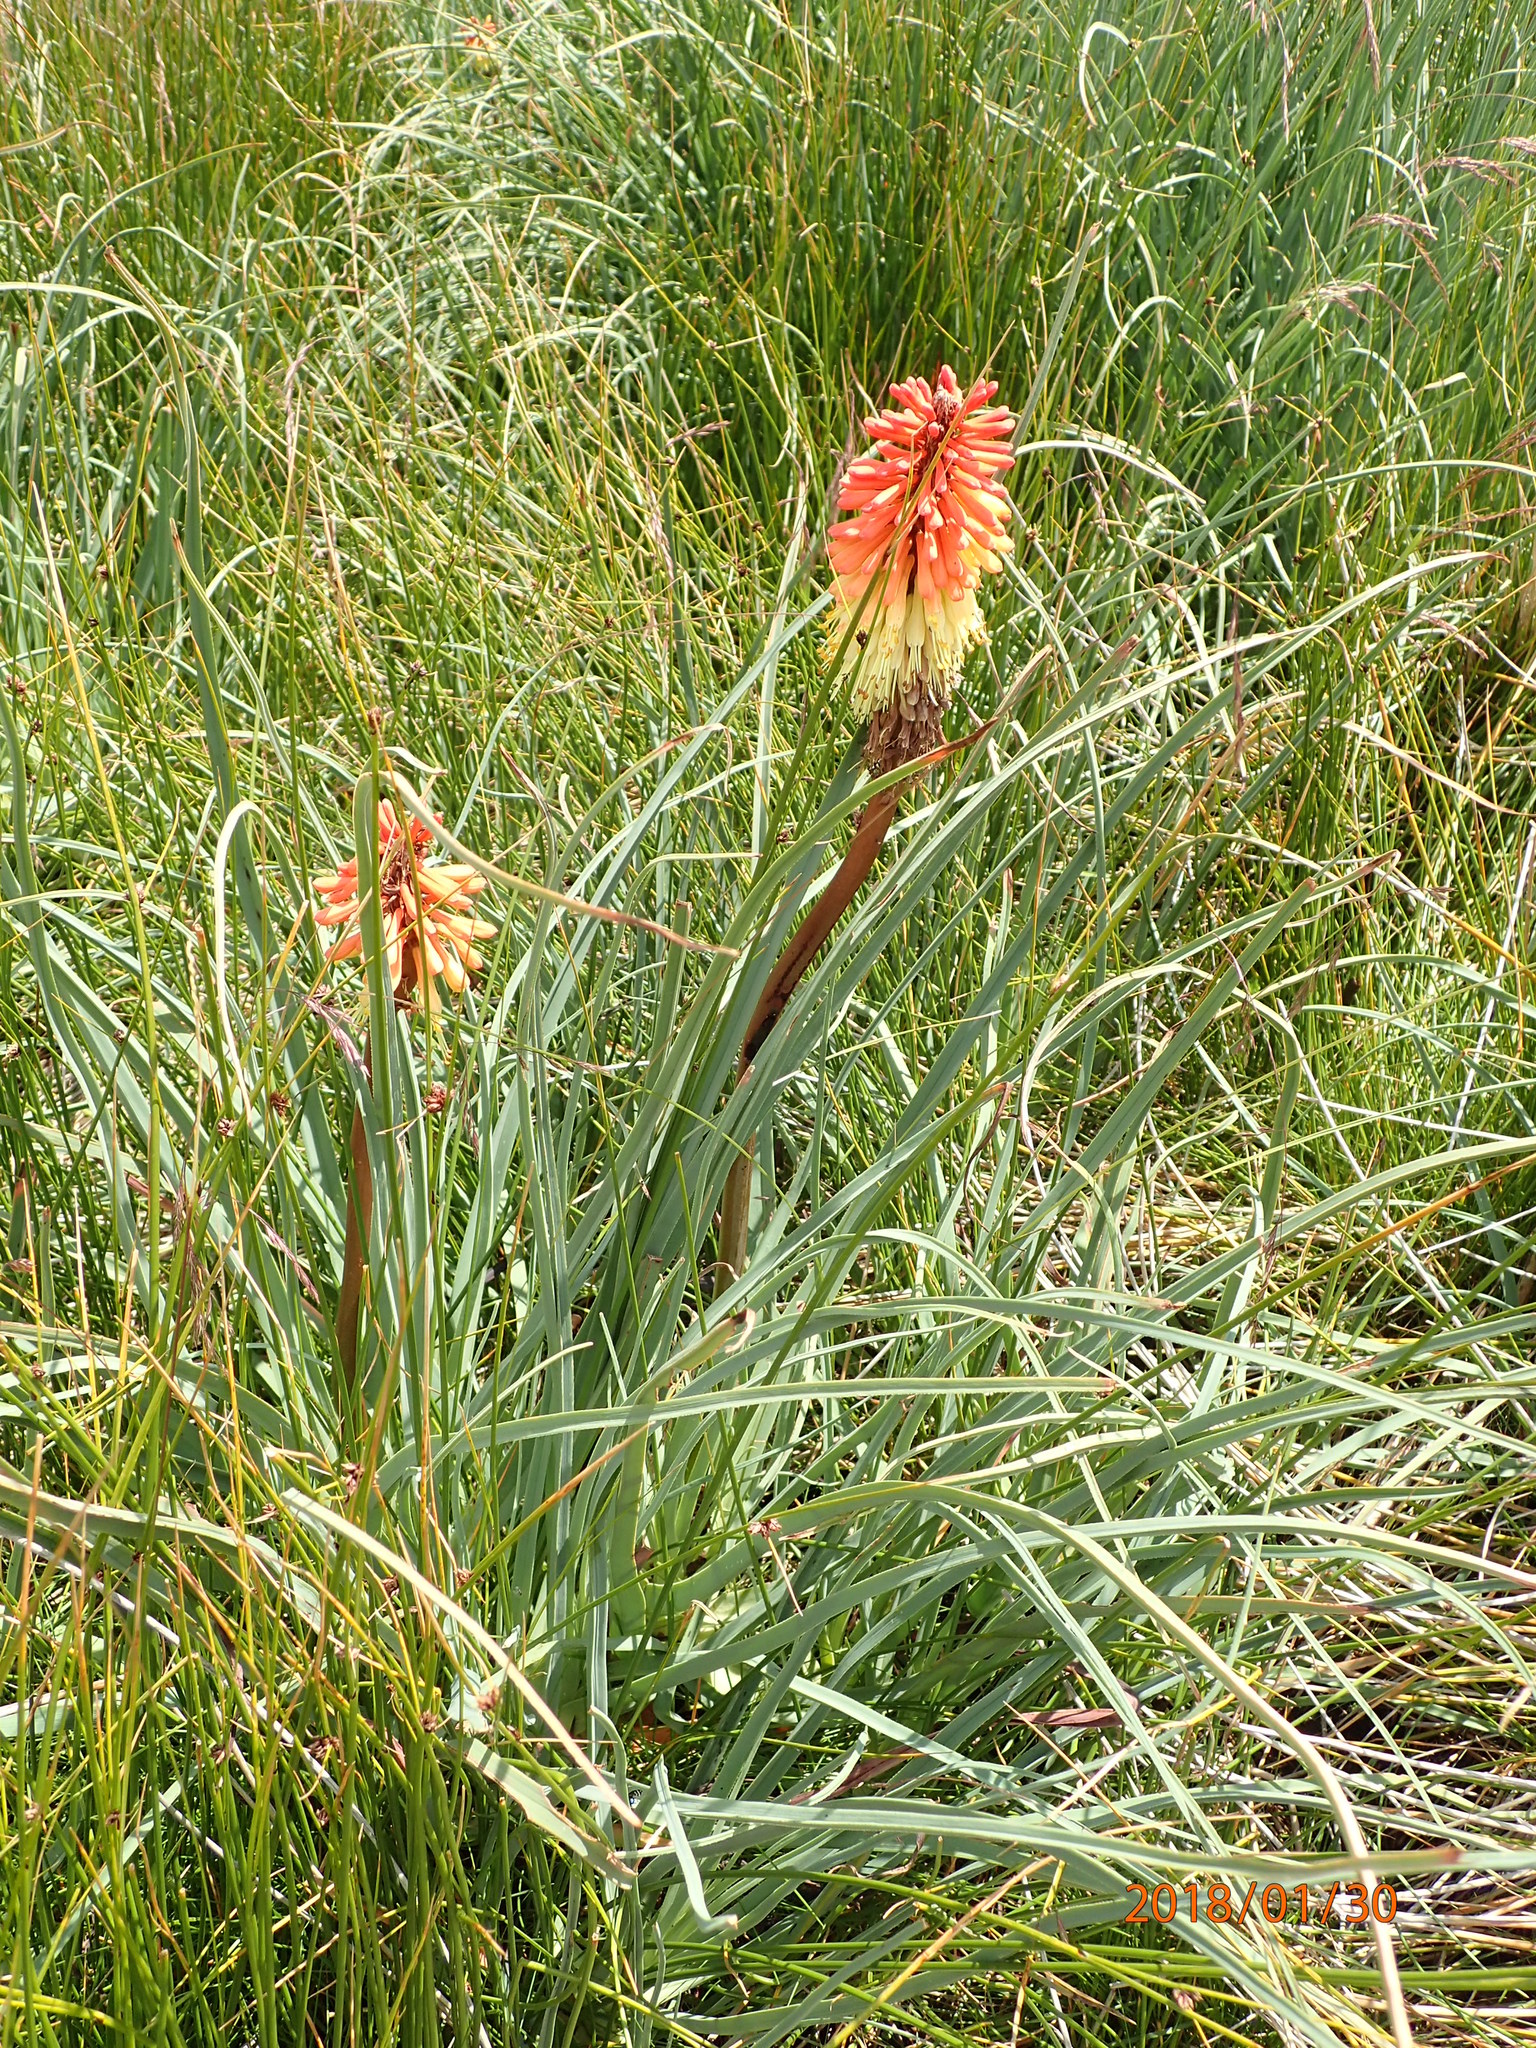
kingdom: Plantae
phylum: Tracheophyta
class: Liliopsida
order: Asparagales
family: Asphodelaceae
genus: Kniphofia
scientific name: Kniphofia caulescens
